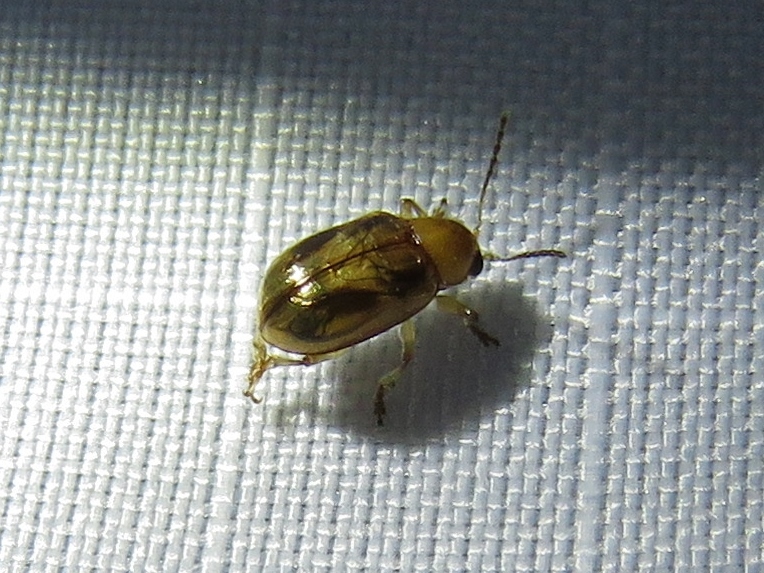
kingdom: Animalia
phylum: Arthropoda
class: Insecta
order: Coleoptera
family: Chrysomelidae
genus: Paria
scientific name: Paria quadriguttata
